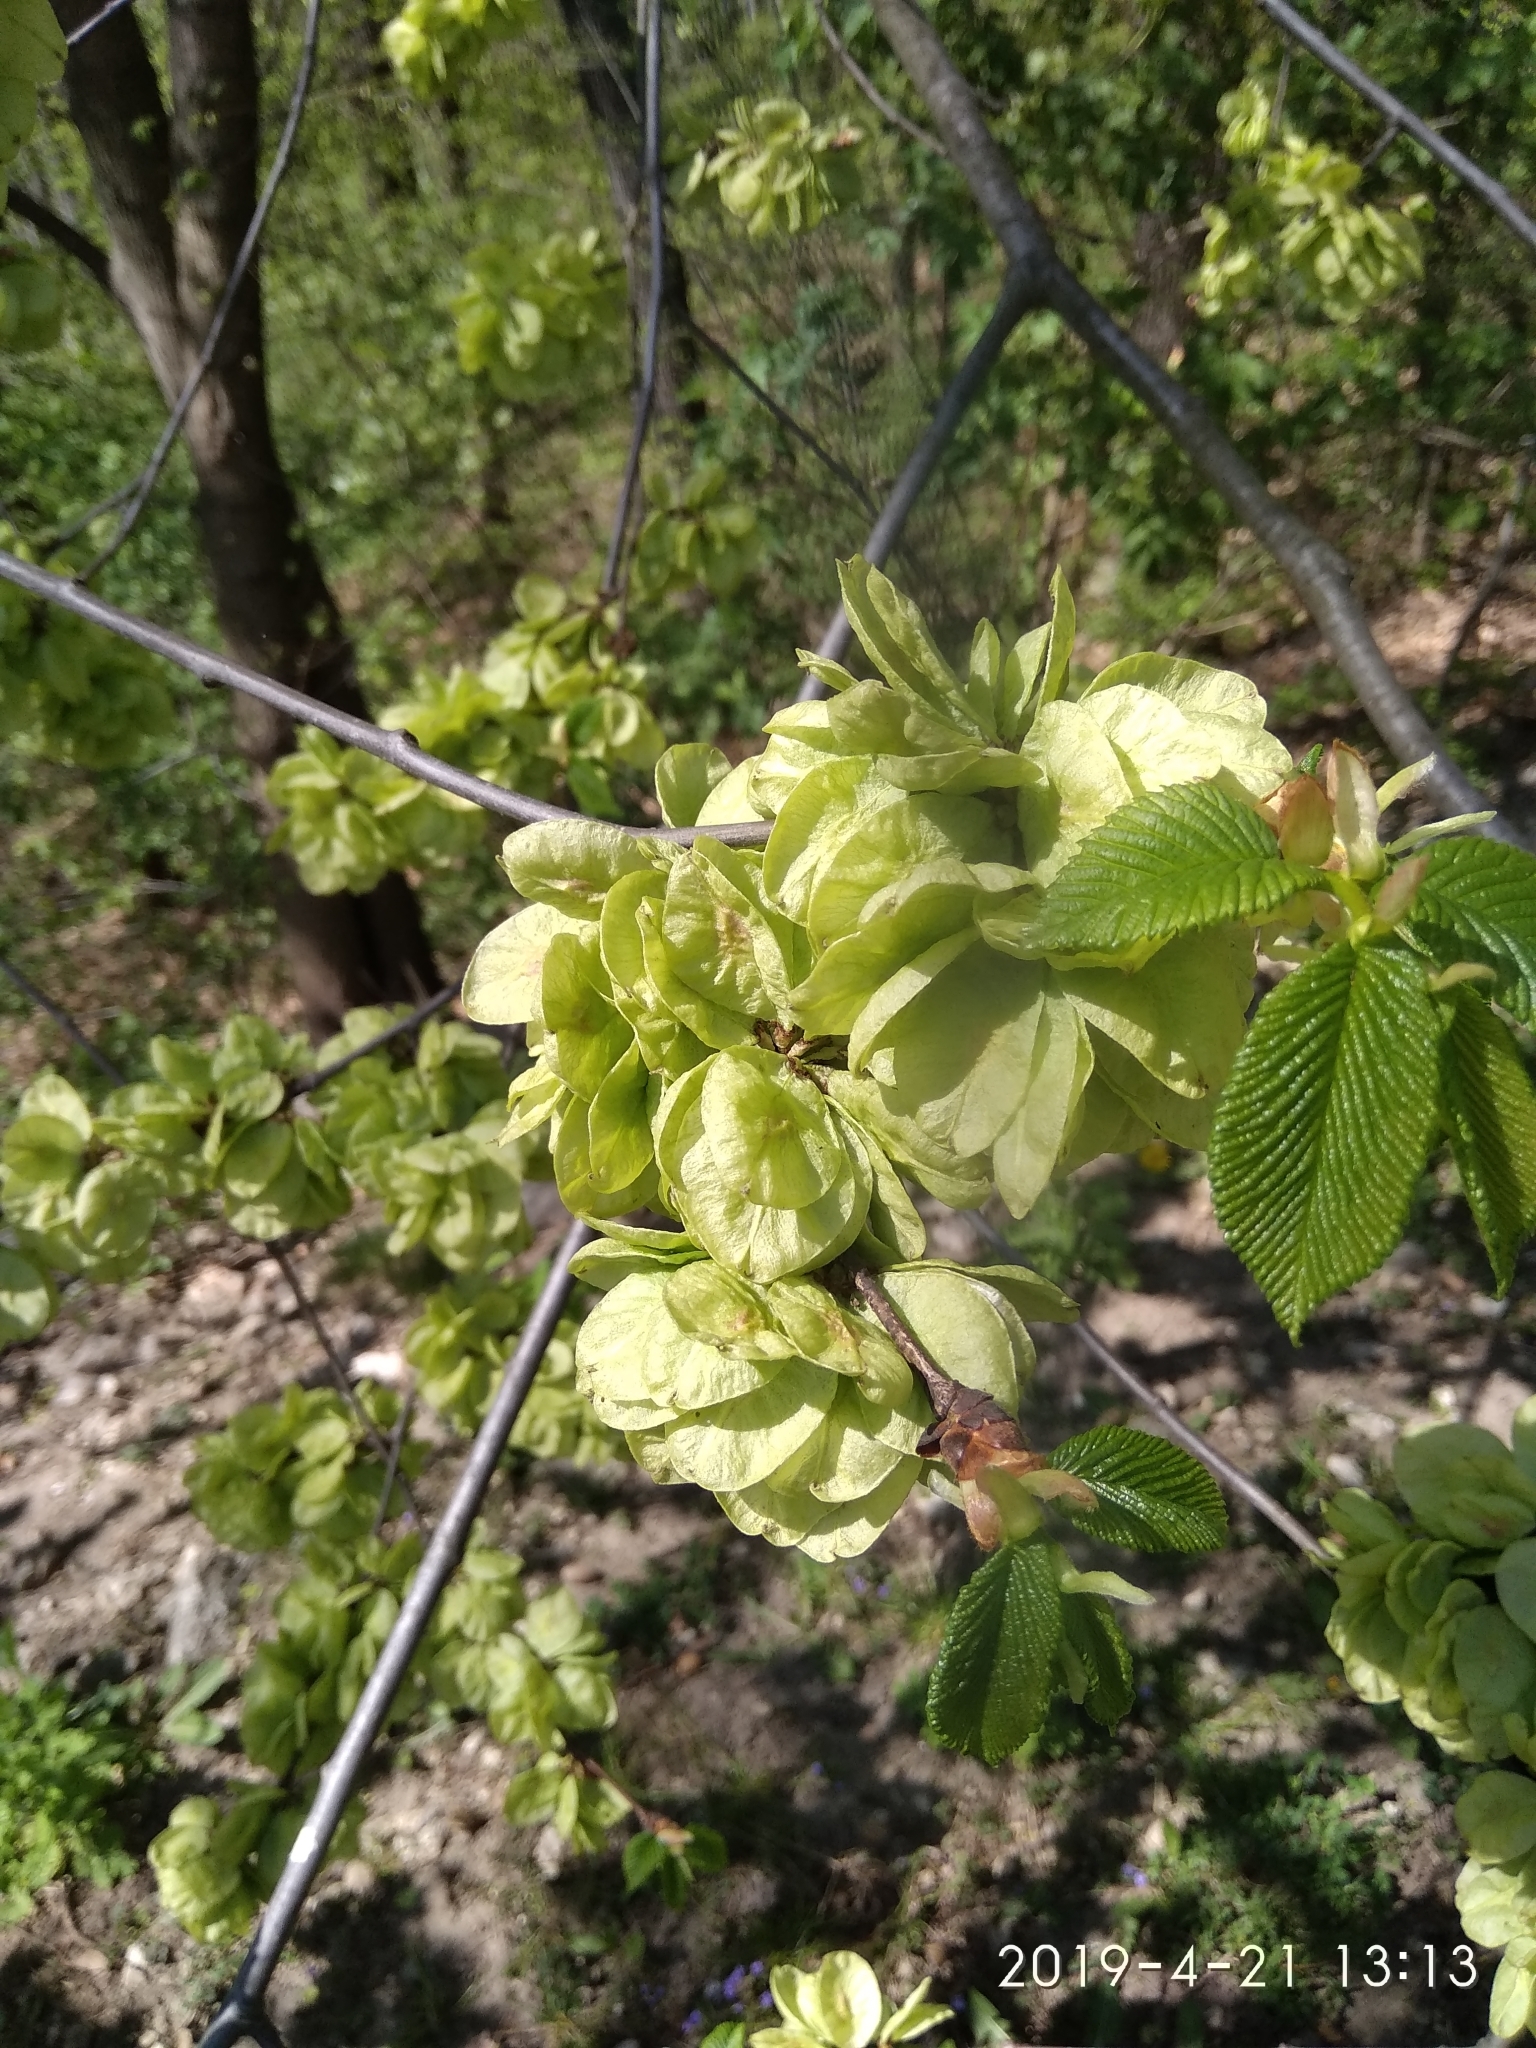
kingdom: Plantae
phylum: Tracheophyta
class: Magnoliopsida
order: Rosales
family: Ulmaceae
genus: Ulmus
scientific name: Ulmus glabra
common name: Wych elm
